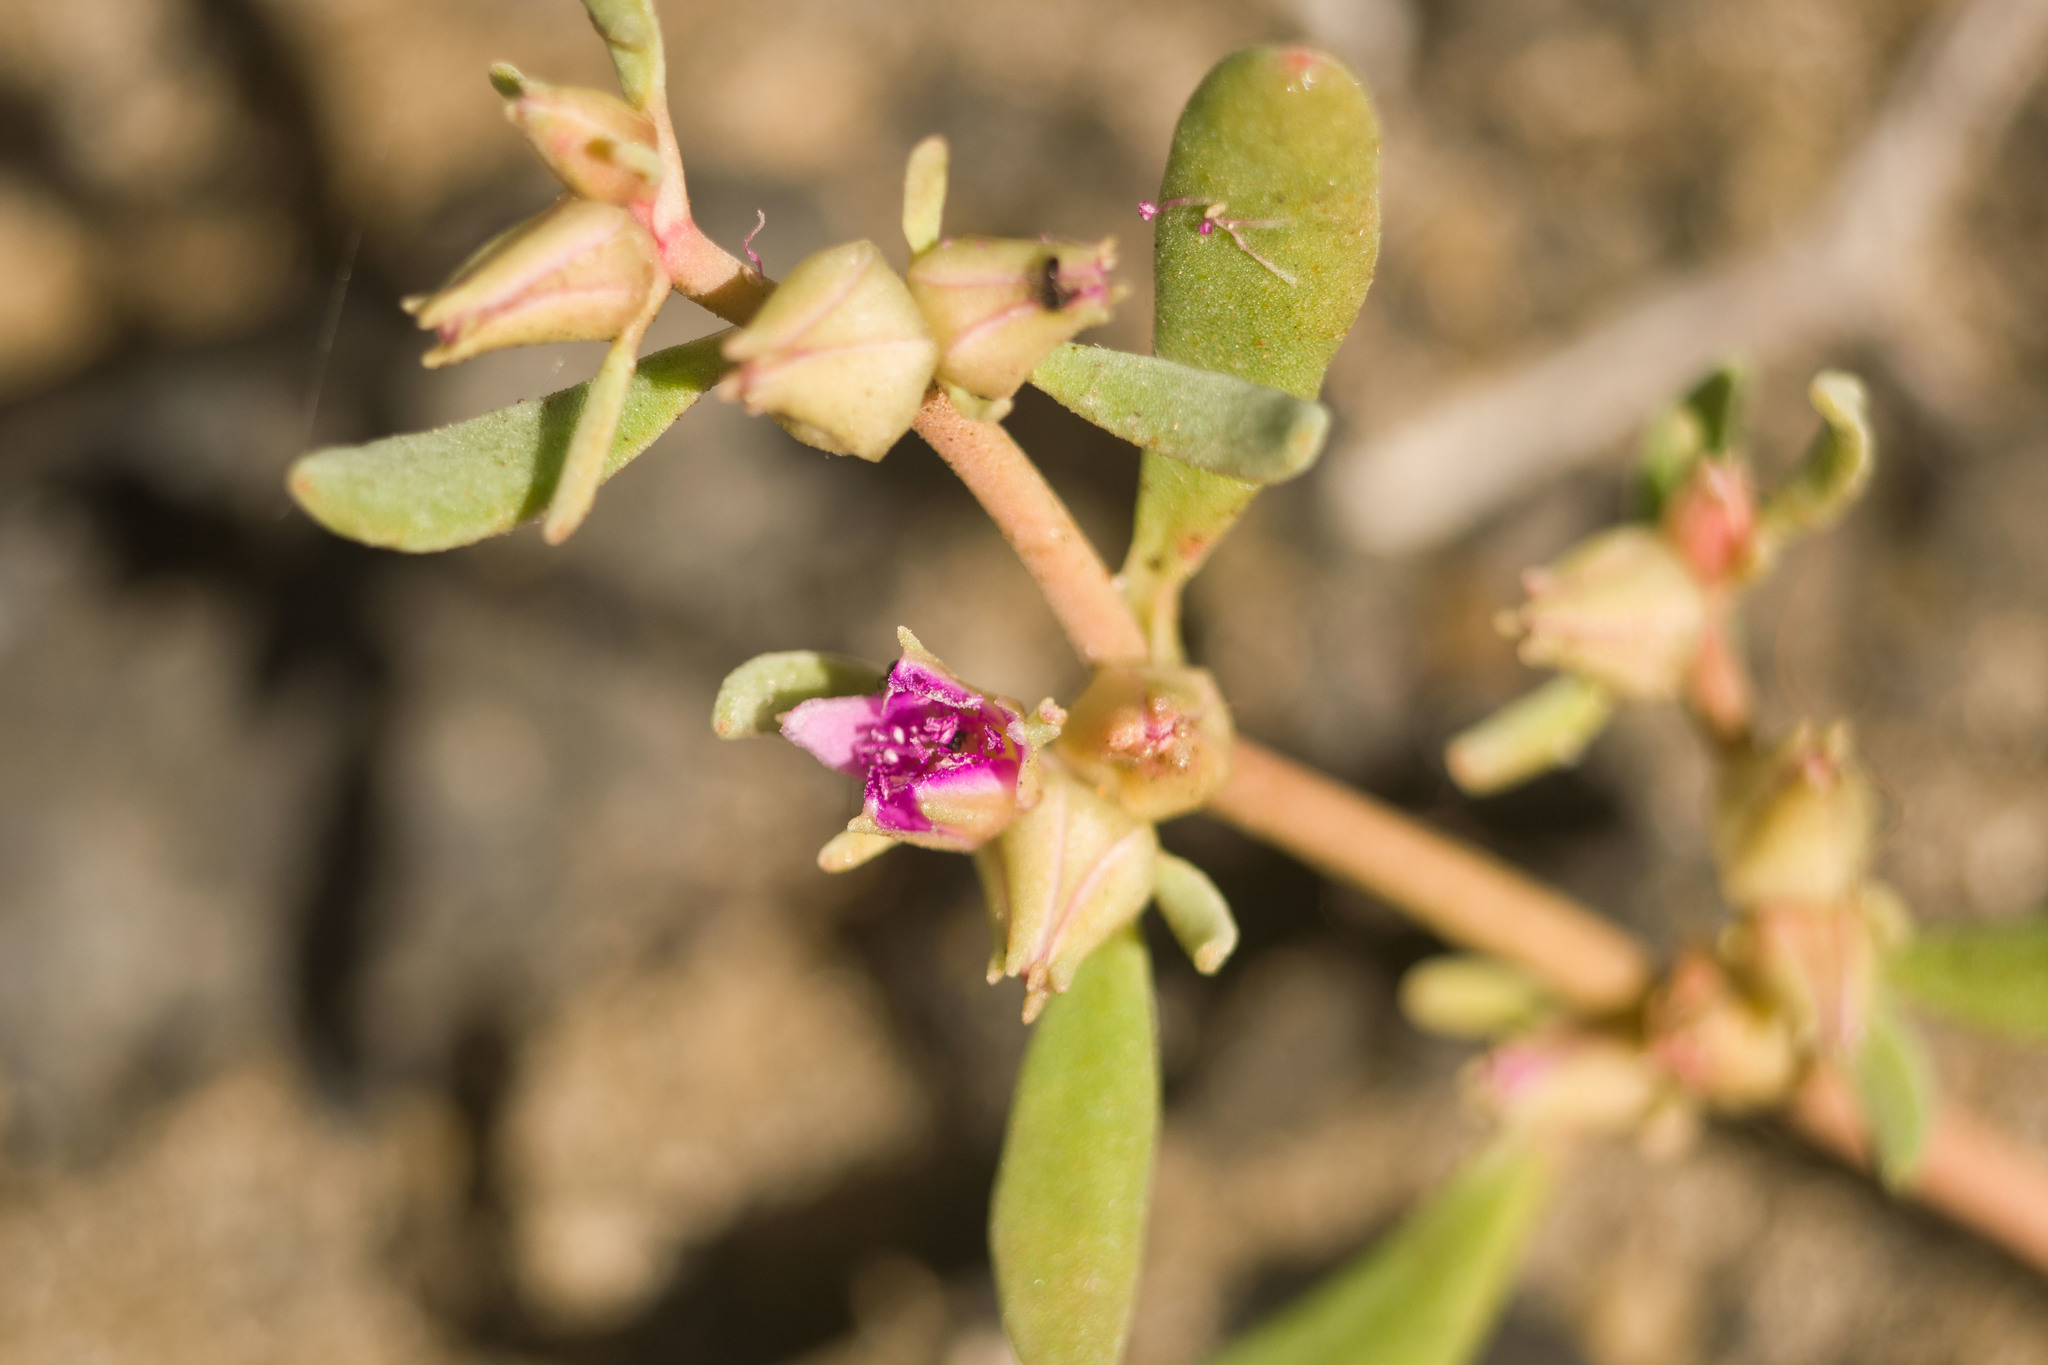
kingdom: Plantae
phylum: Tracheophyta
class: Magnoliopsida
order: Caryophyllales
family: Aizoaceae
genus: Sesuvium
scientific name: Sesuvium revolutifolium
